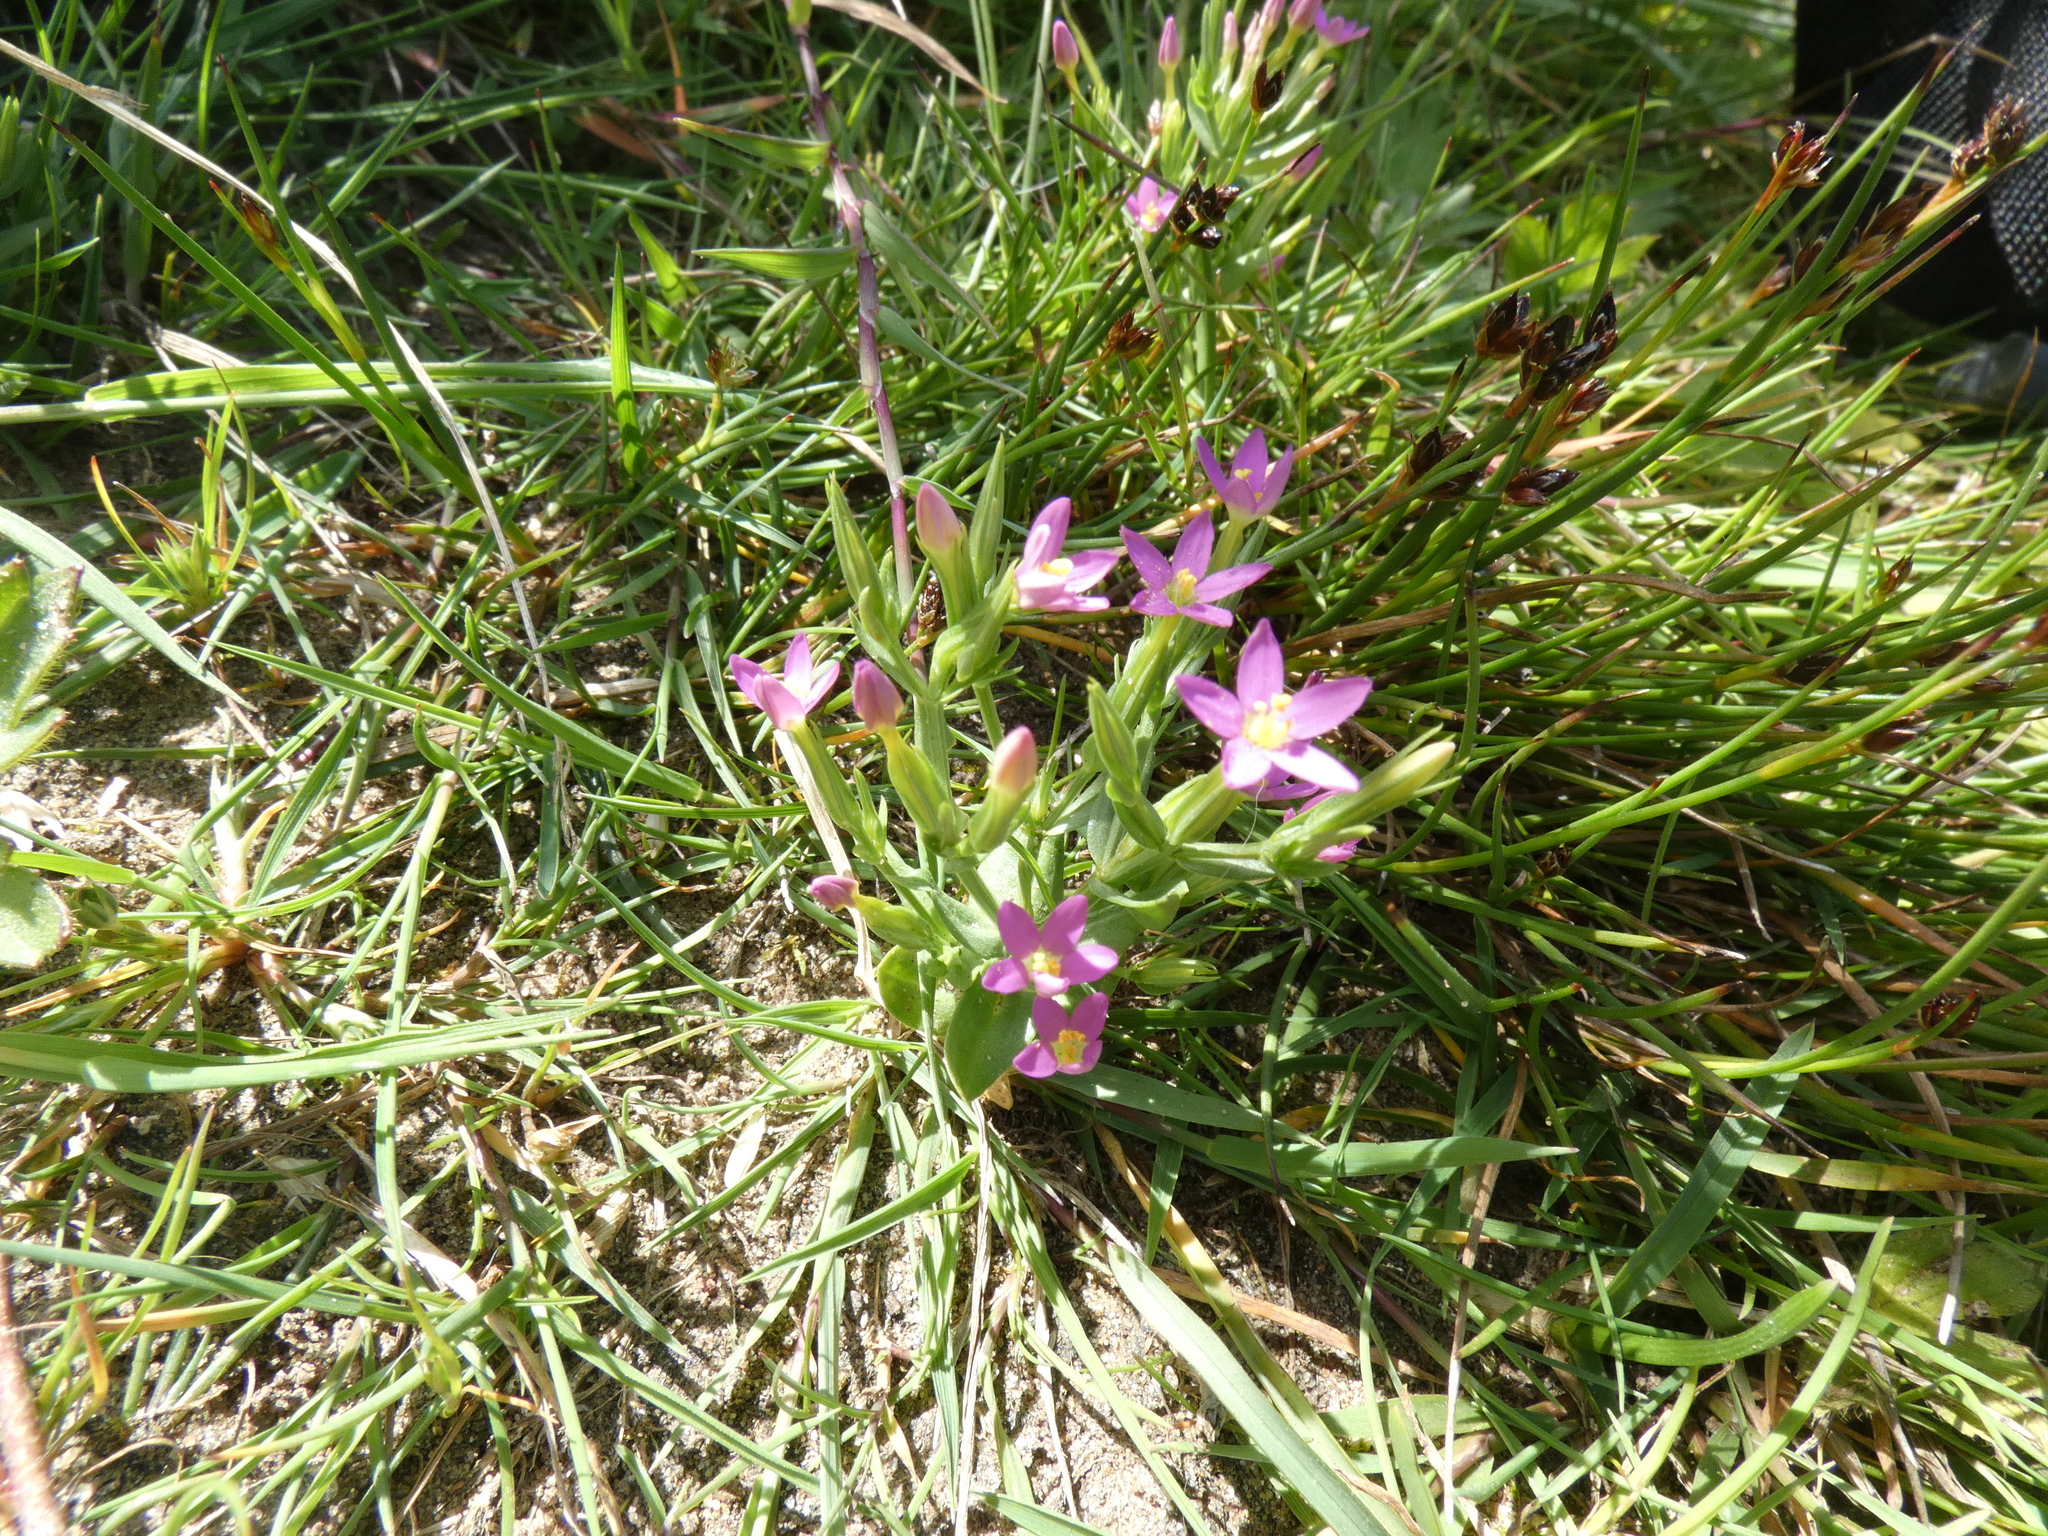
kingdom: Plantae
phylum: Tracheophyta
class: Magnoliopsida
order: Gentianales
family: Gentianaceae
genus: Centaurium
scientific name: Centaurium pulchellum
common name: Lesser centaury
